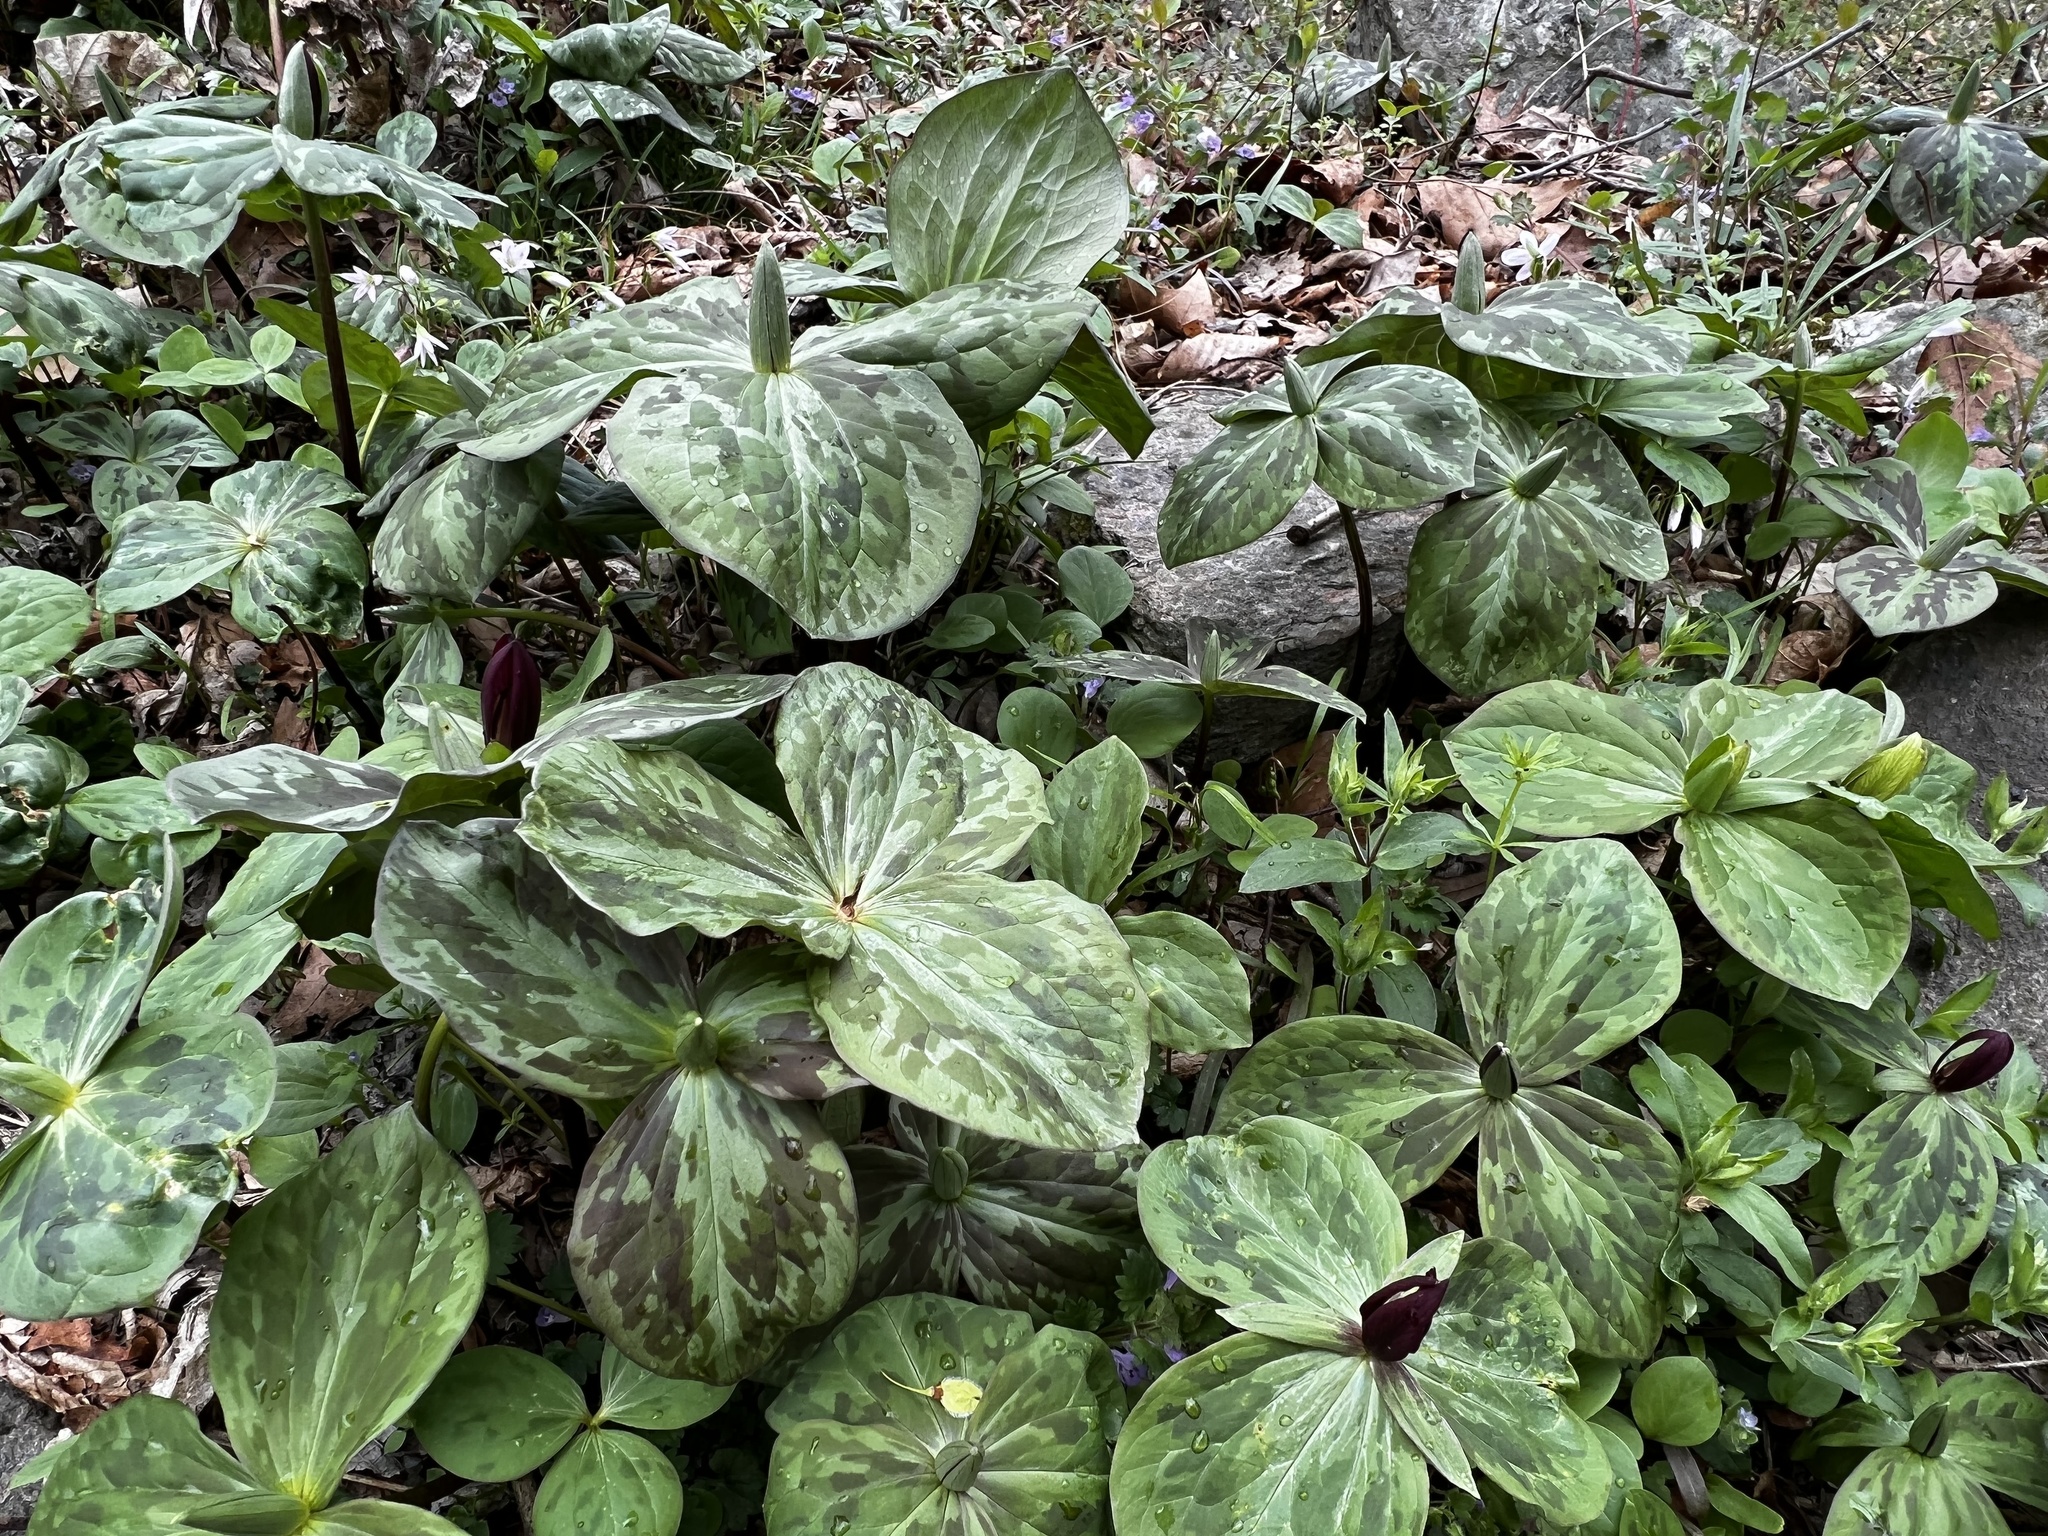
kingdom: Plantae
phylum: Tracheophyta
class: Liliopsida
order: Liliales
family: Melanthiaceae
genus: Trillium
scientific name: Trillium sessile
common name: Sessile trillium
